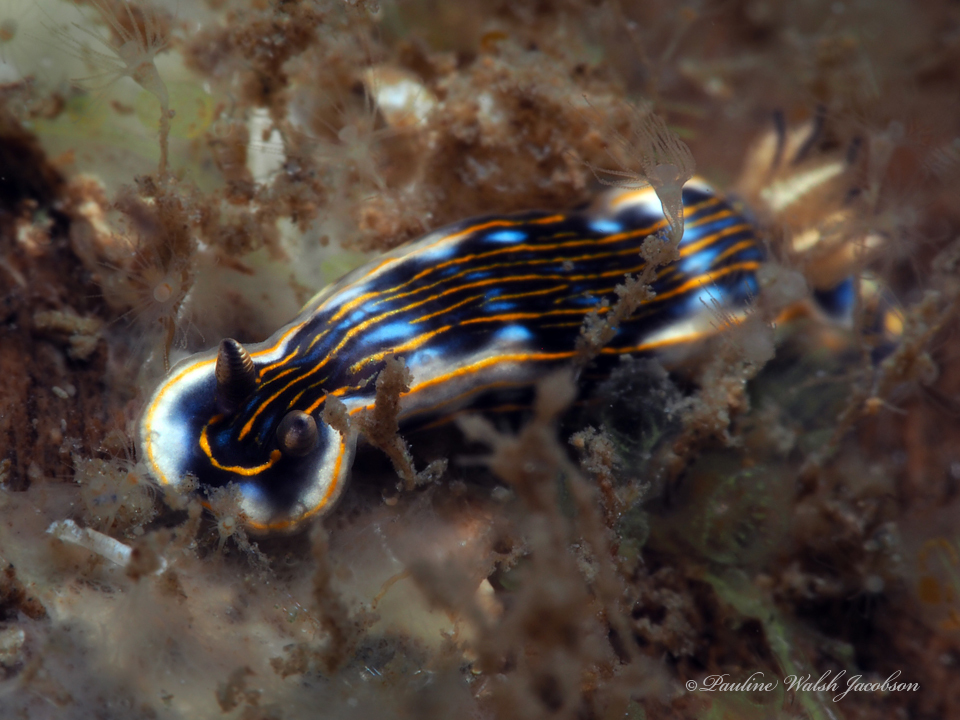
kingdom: Animalia
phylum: Mollusca
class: Gastropoda
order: Nudibranchia
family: Chromodorididae
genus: Felimare
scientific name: Felimare ruthae
